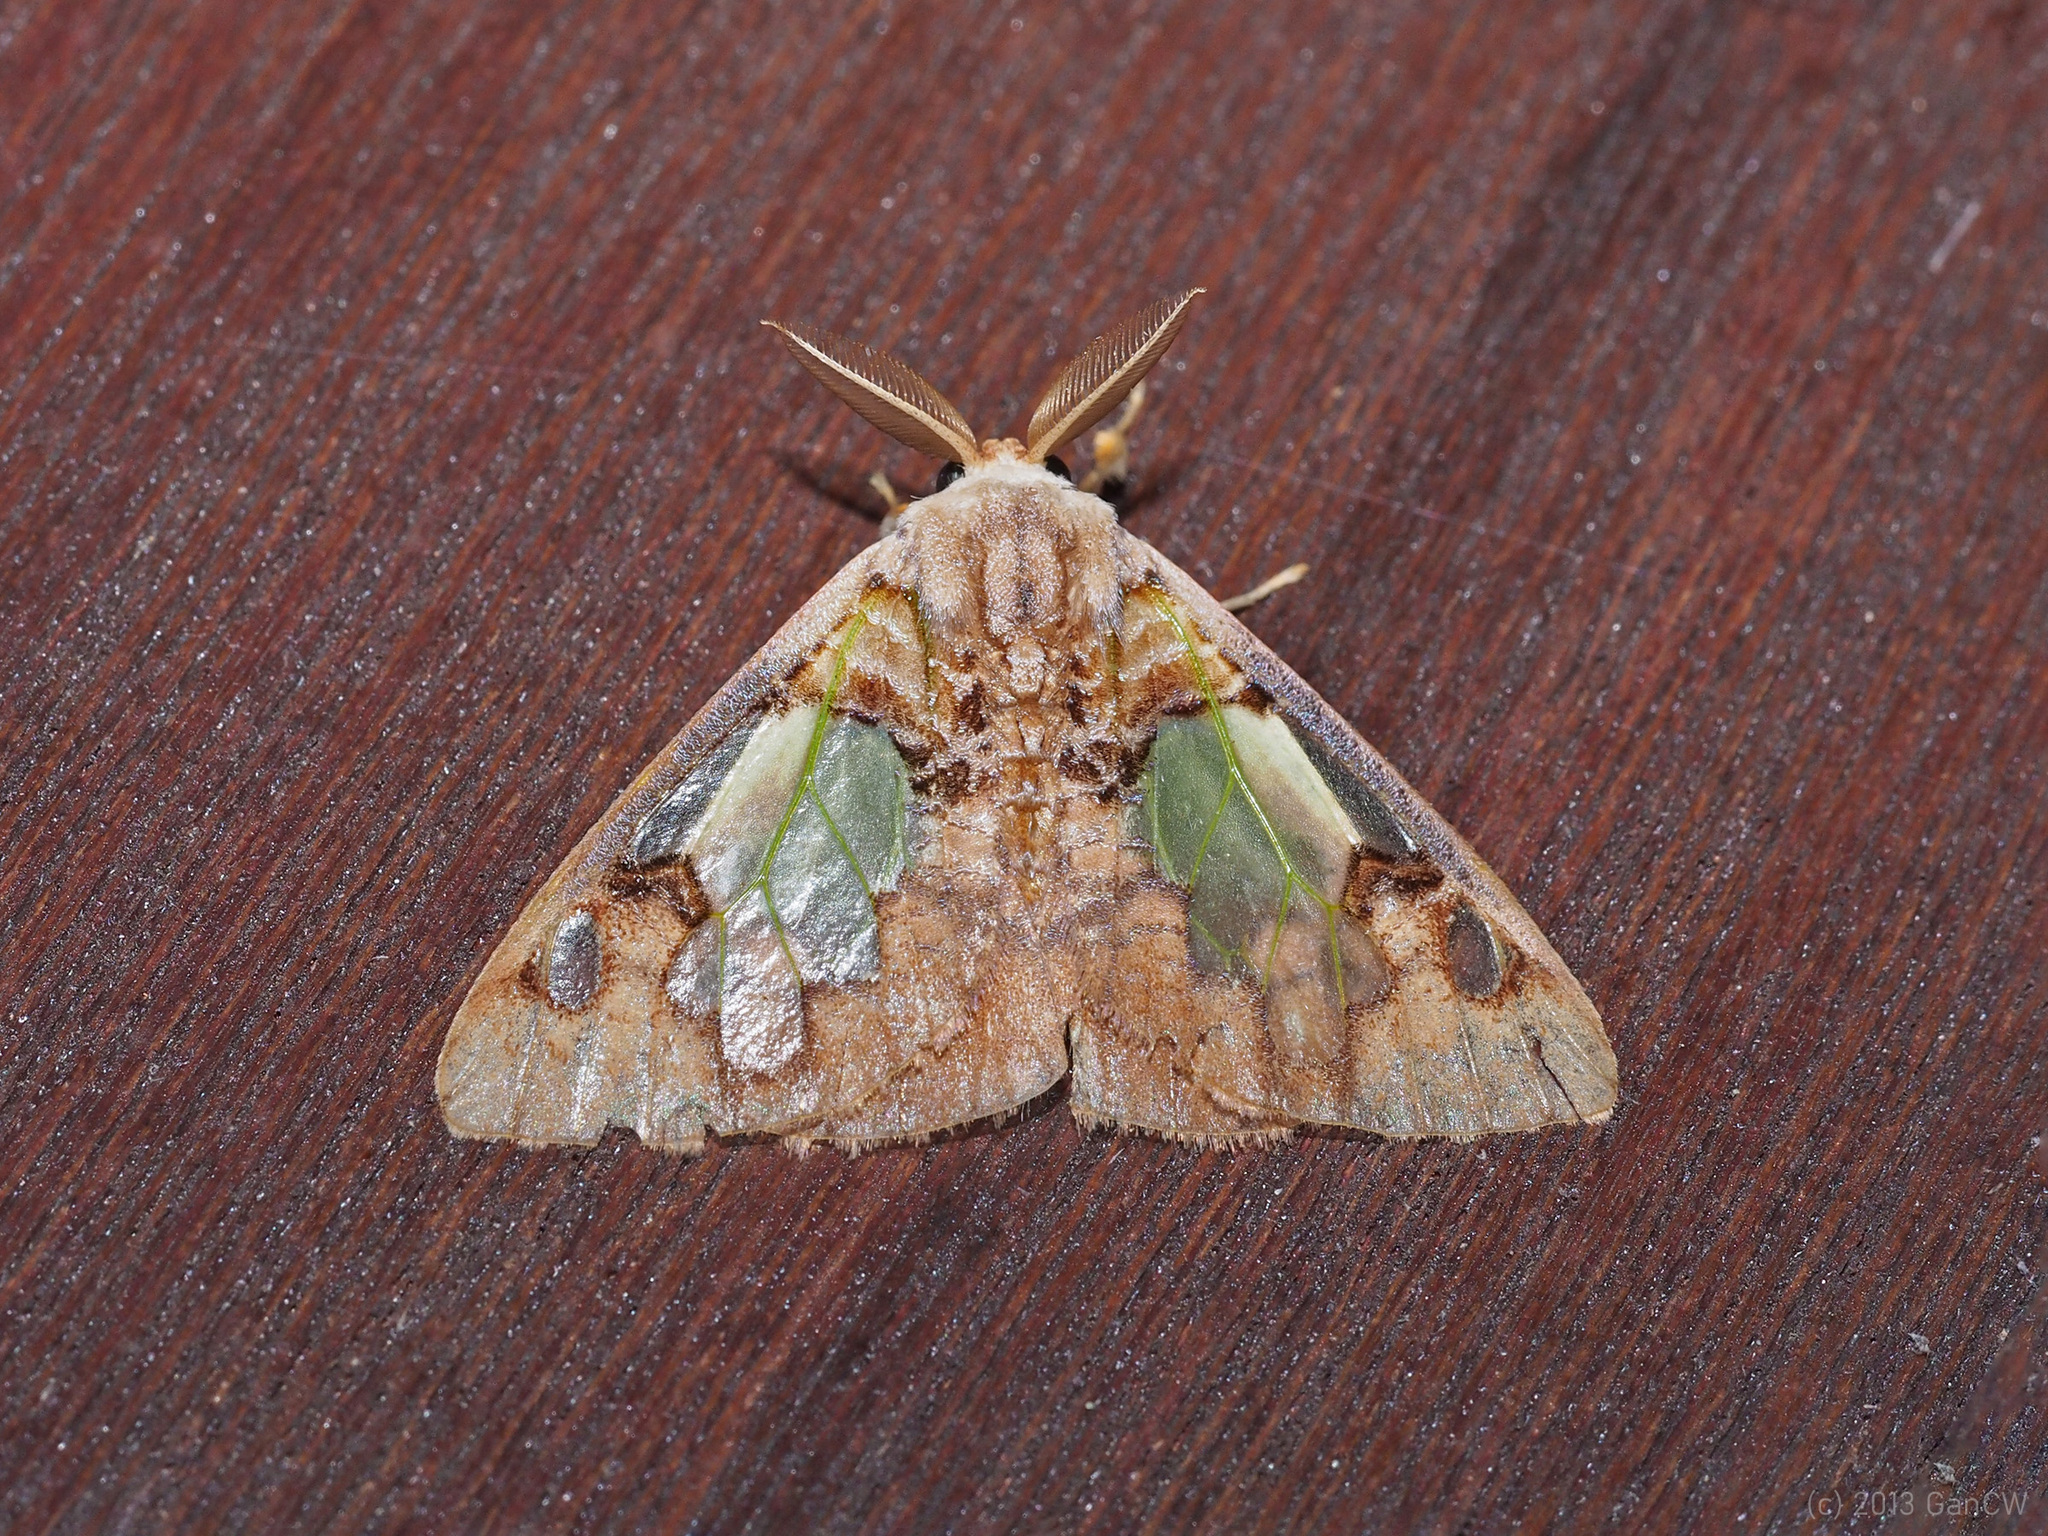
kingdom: Animalia
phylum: Arthropoda
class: Insecta
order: Lepidoptera
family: Erebidae
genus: Carriola
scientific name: Carriola
